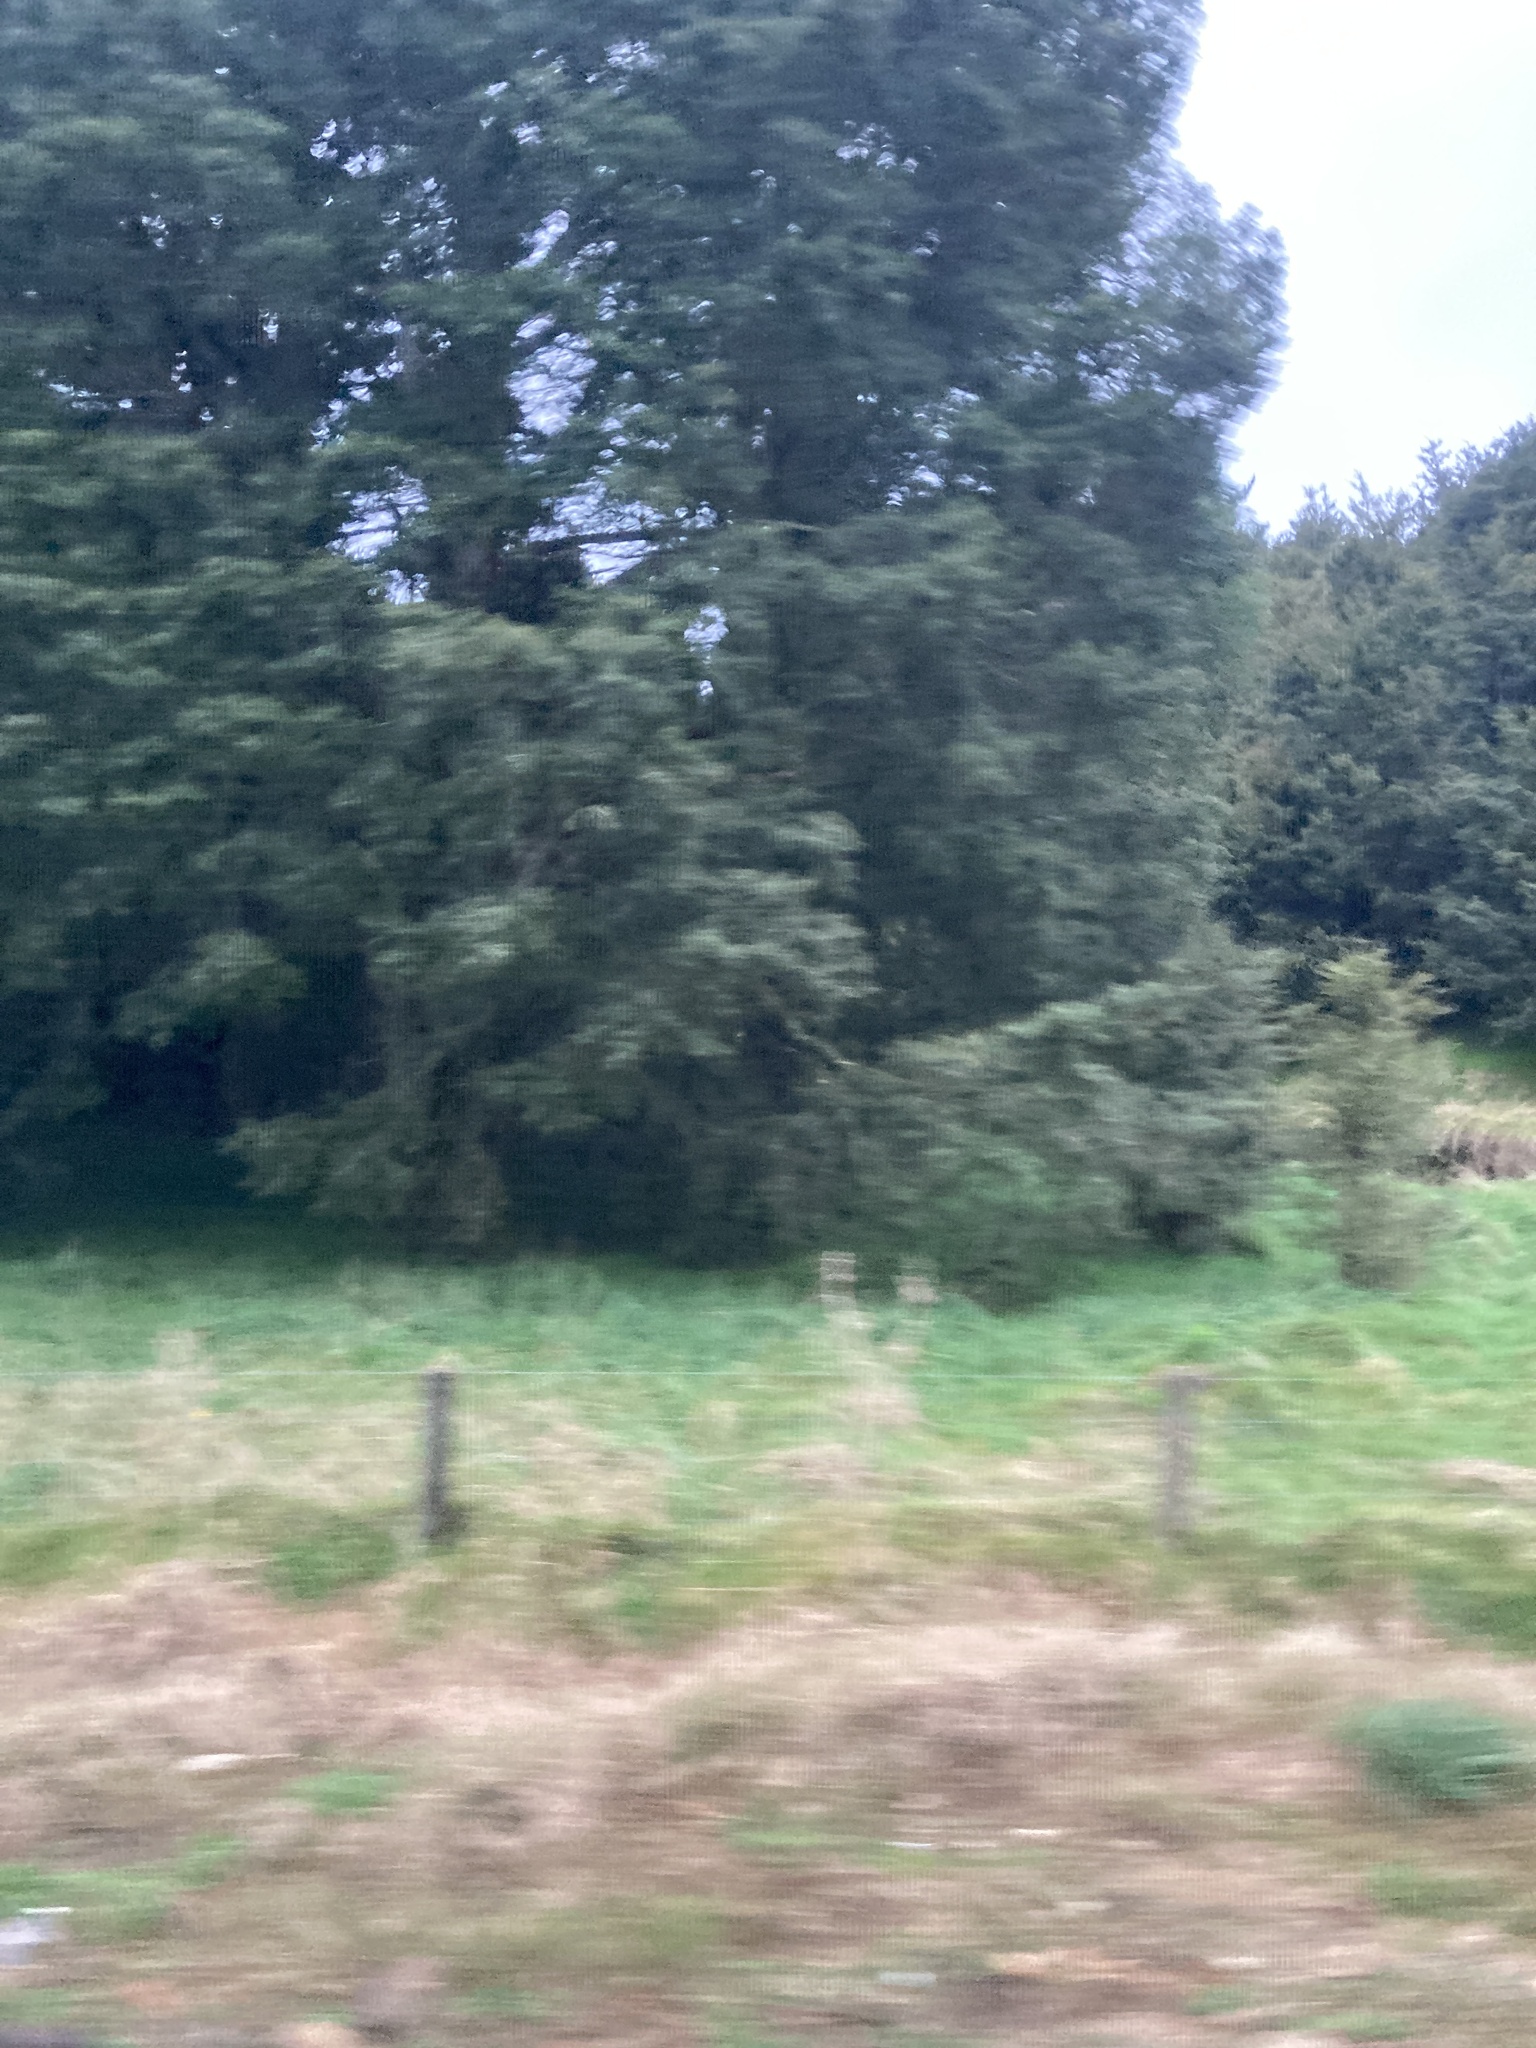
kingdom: Plantae
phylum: Tracheophyta
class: Pinopsida
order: Pinales
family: Podocarpaceae
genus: Podocarpus
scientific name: Podocarpus totara
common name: Totara
